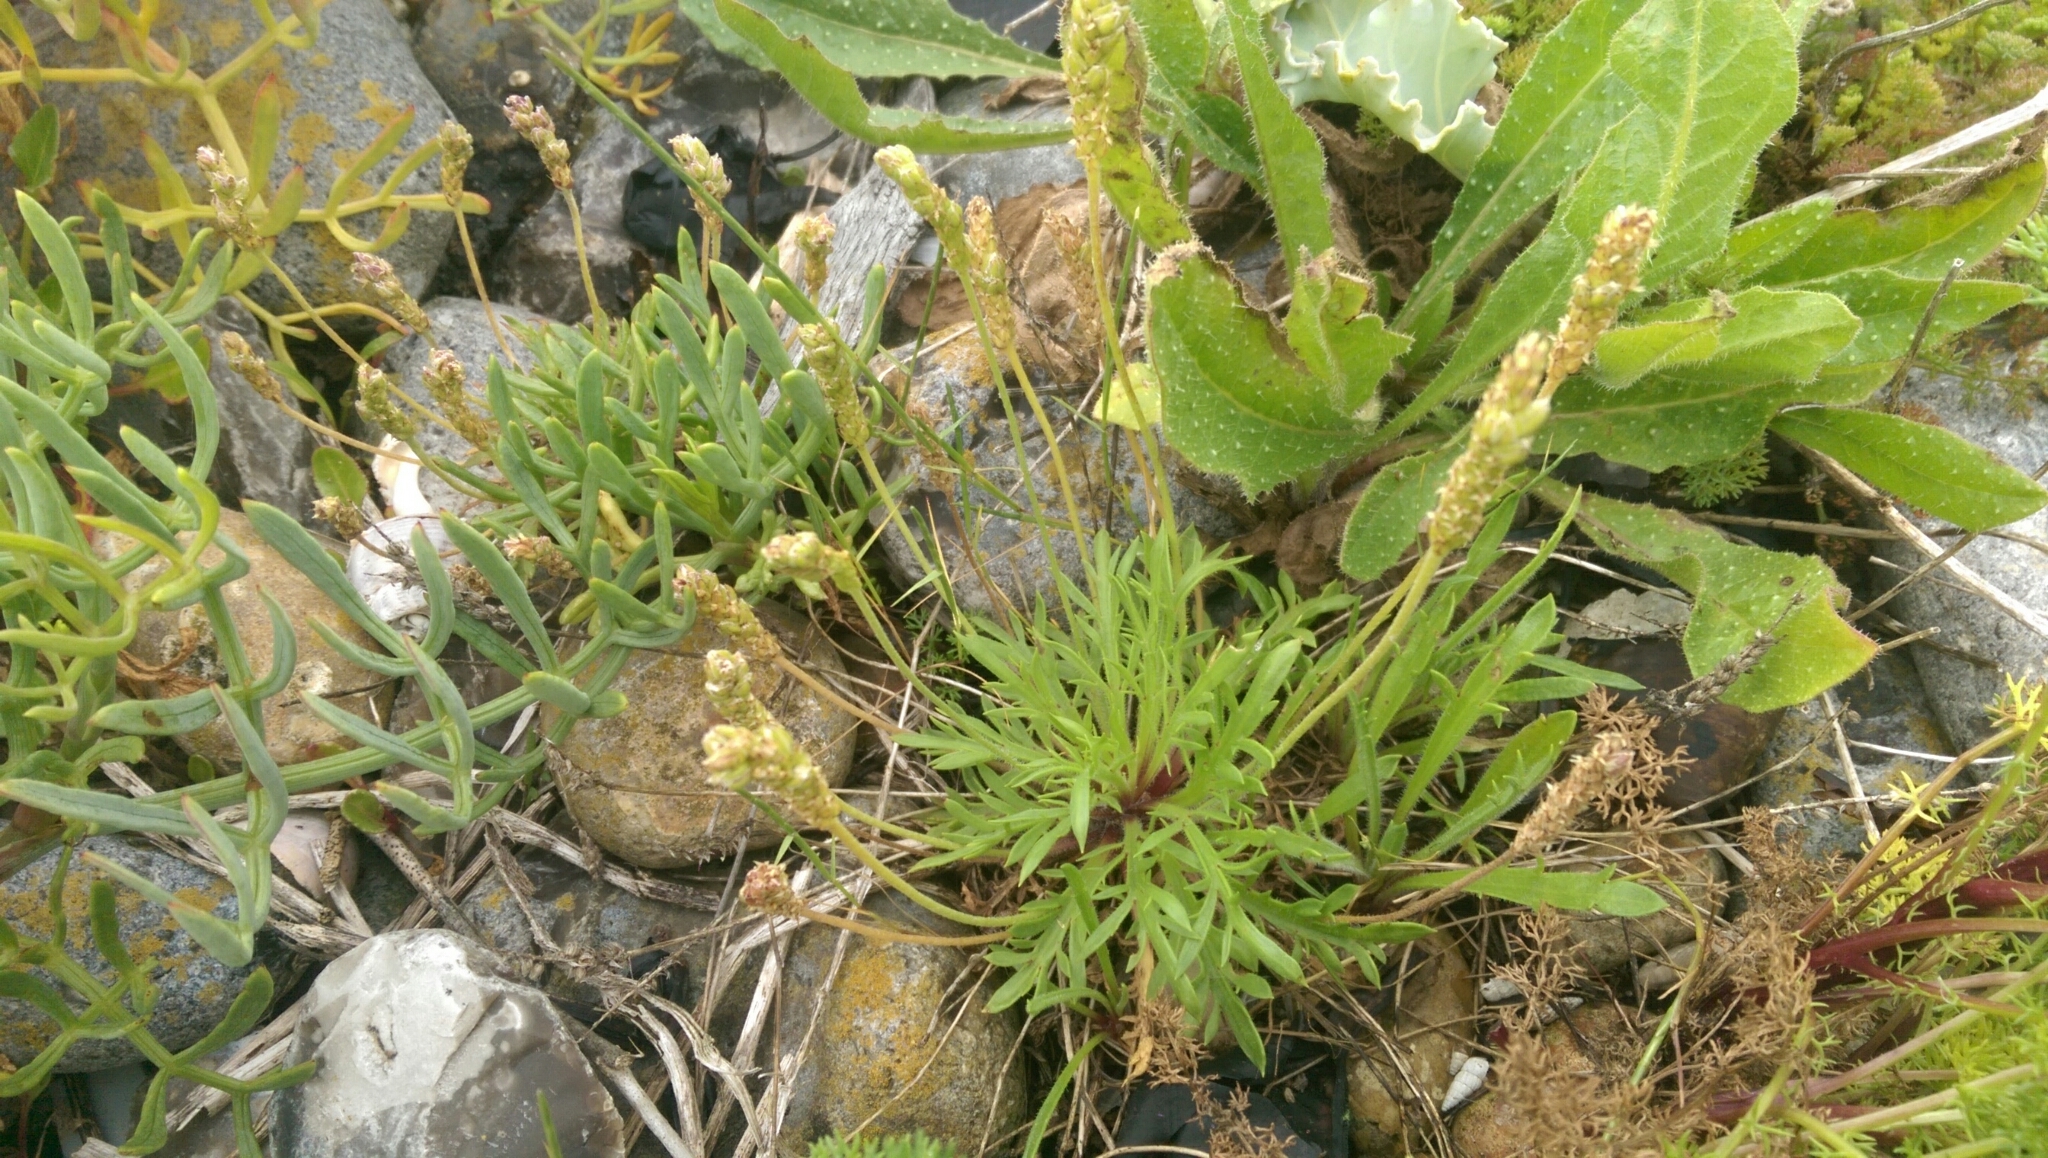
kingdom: Plantae
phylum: Tracheophyta
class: Magnoliopsida
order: Lamiales
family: Plantaginaceae
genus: Plantago
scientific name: Plantago coronopus
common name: Buck's-horn plantain
